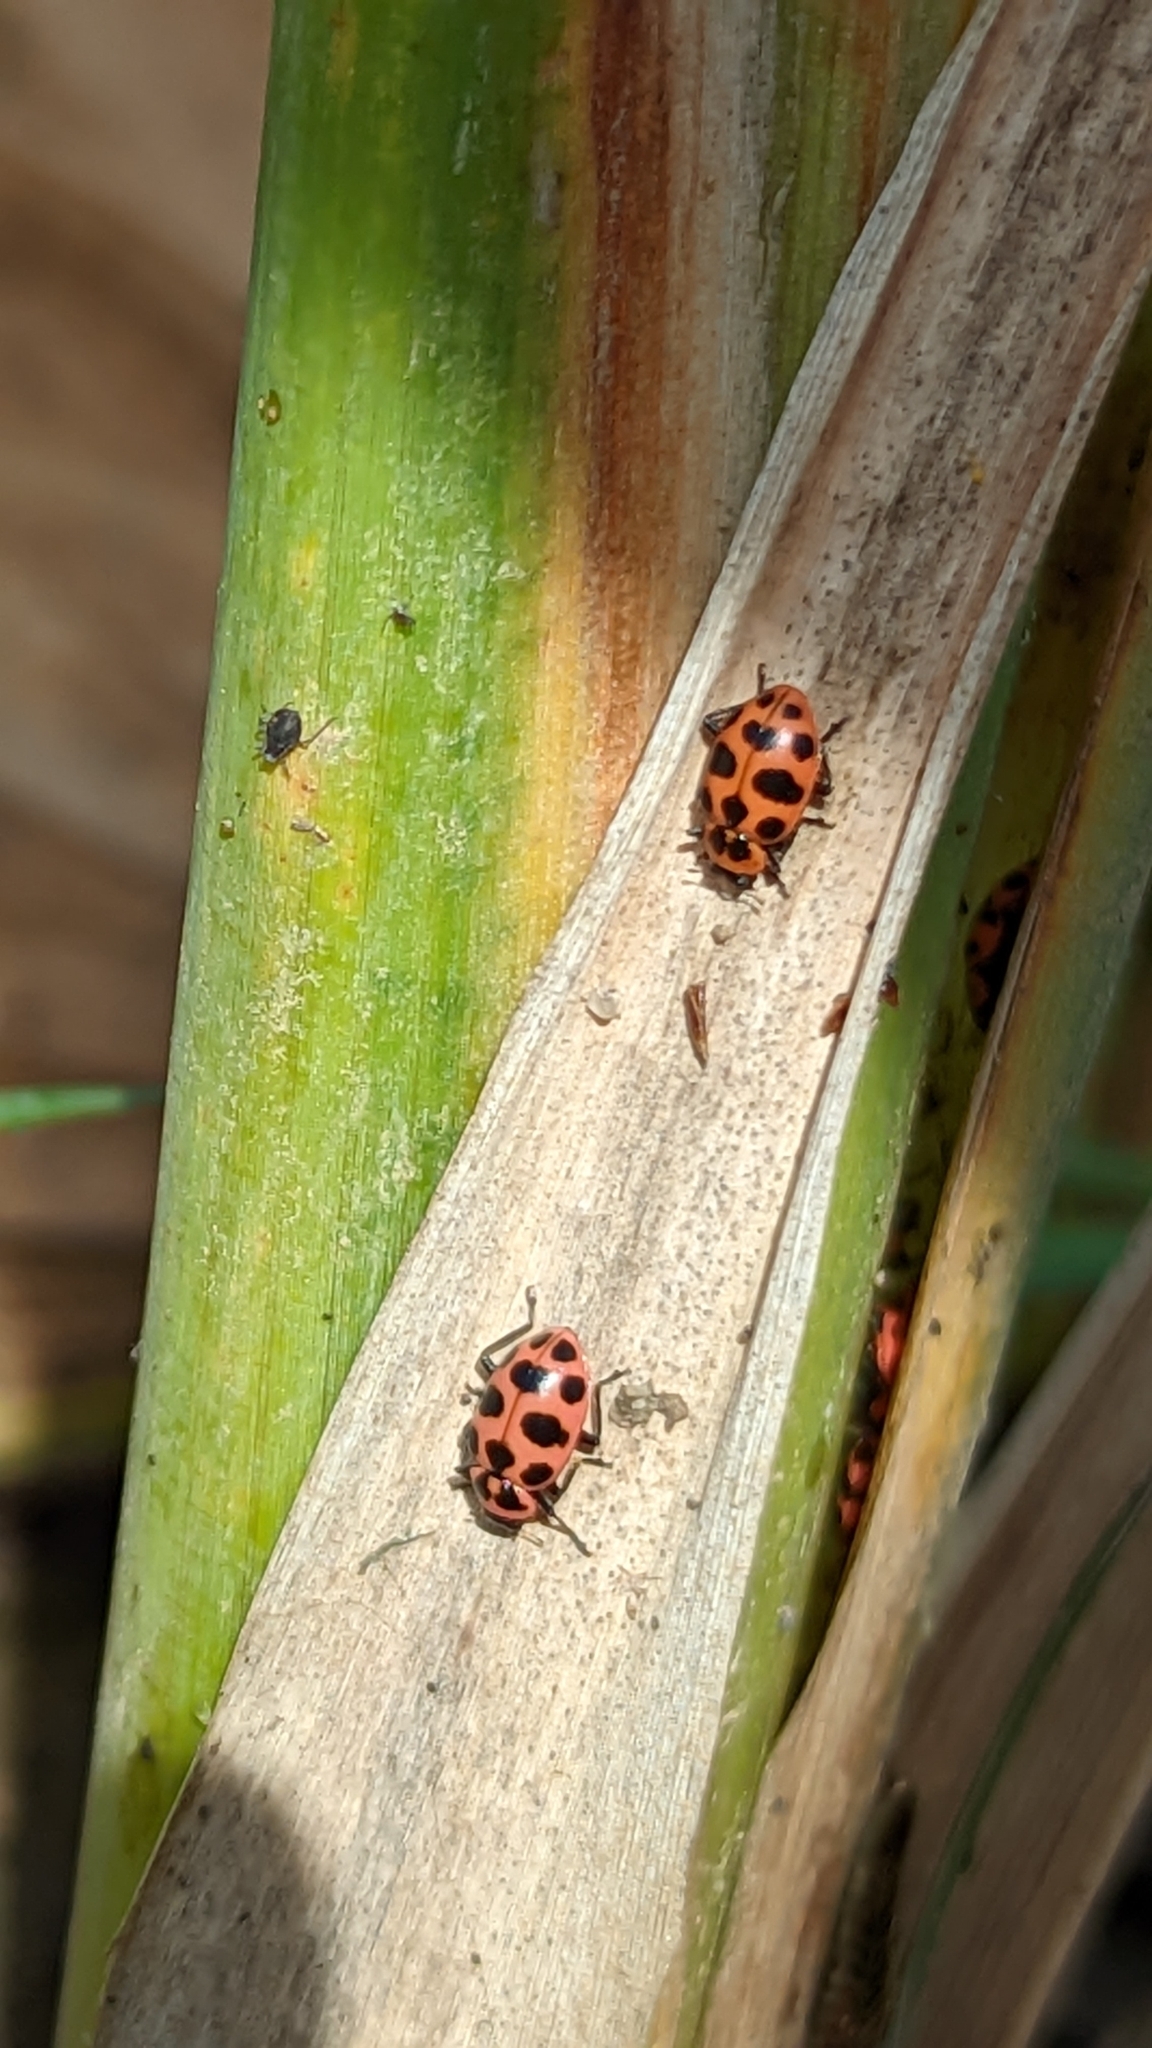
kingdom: Animalia
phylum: Arthropoda
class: Insecta
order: Coleoptera
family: Coccinellidae
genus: Coleomegilla
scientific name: Coleomegilla maculata
